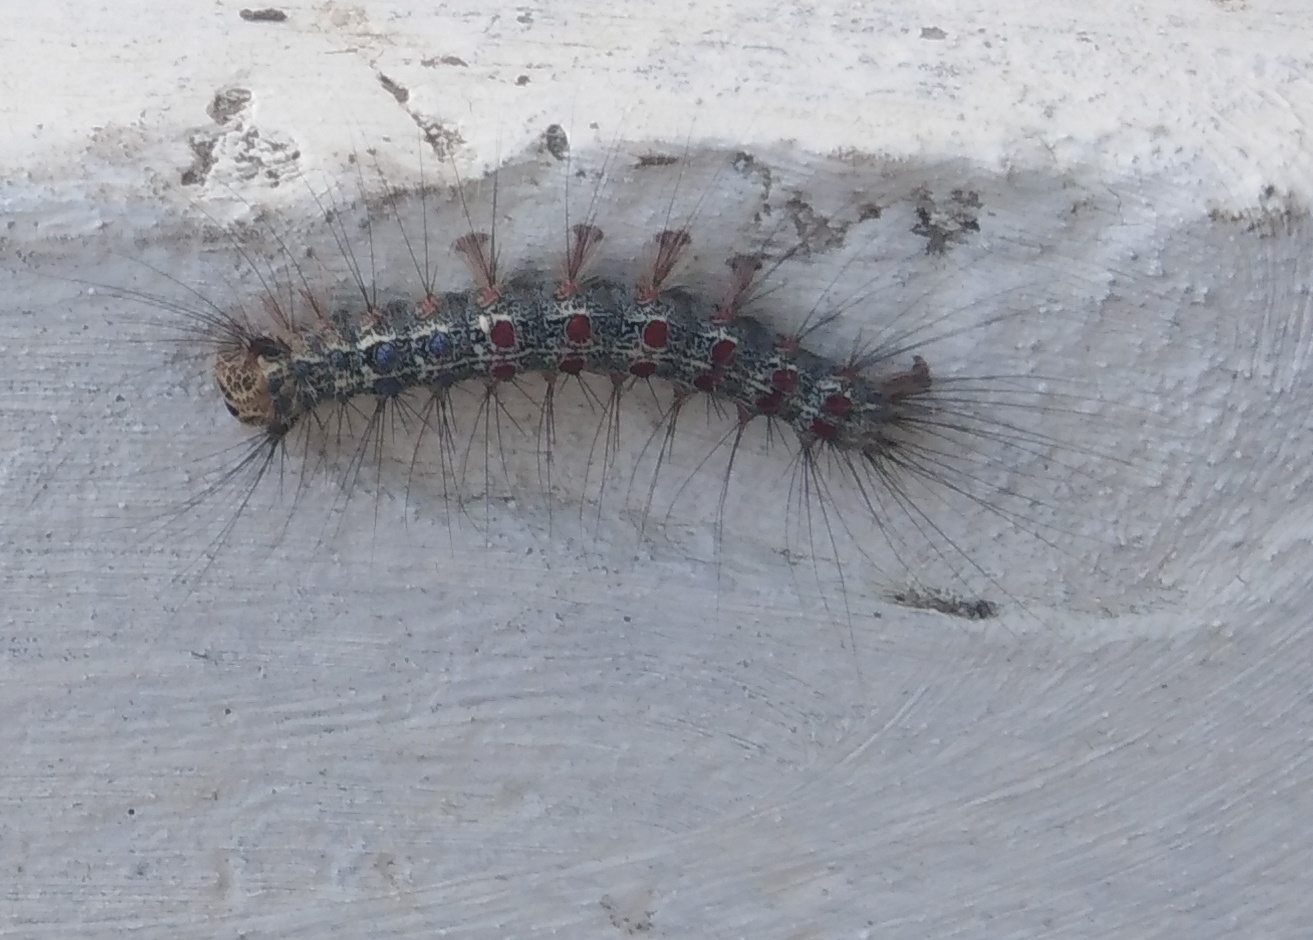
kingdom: Animalia
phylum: Arthropoda
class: Insecta
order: Lepidoptera
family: Erebidae
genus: Lymantria
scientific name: Lymantria dispar
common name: Gypsy moth
